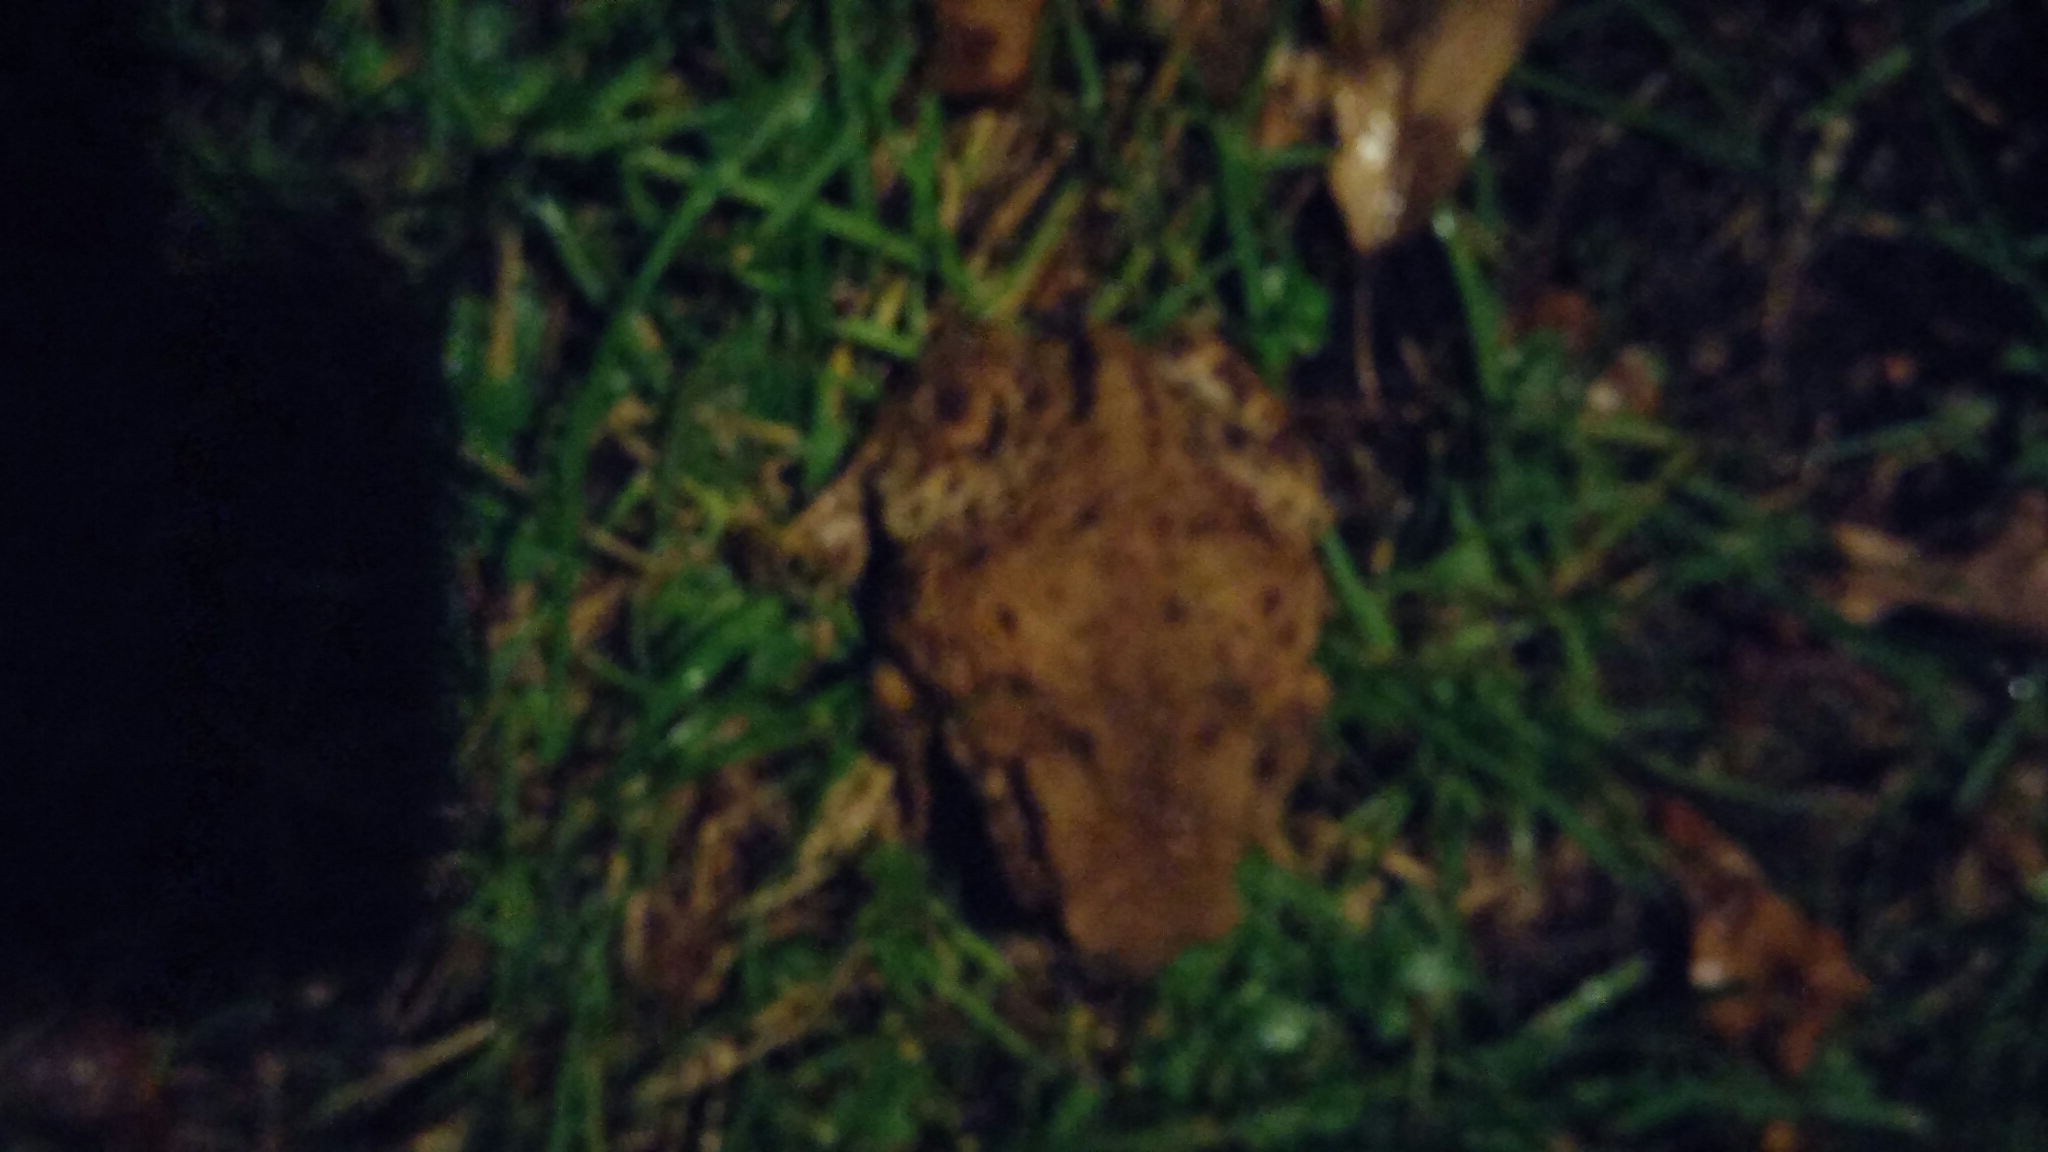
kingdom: Animalia
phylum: Chordata
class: Amphibia
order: Anura
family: Bufonidae
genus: Bufo
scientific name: Bufo bufo
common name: Common toad
